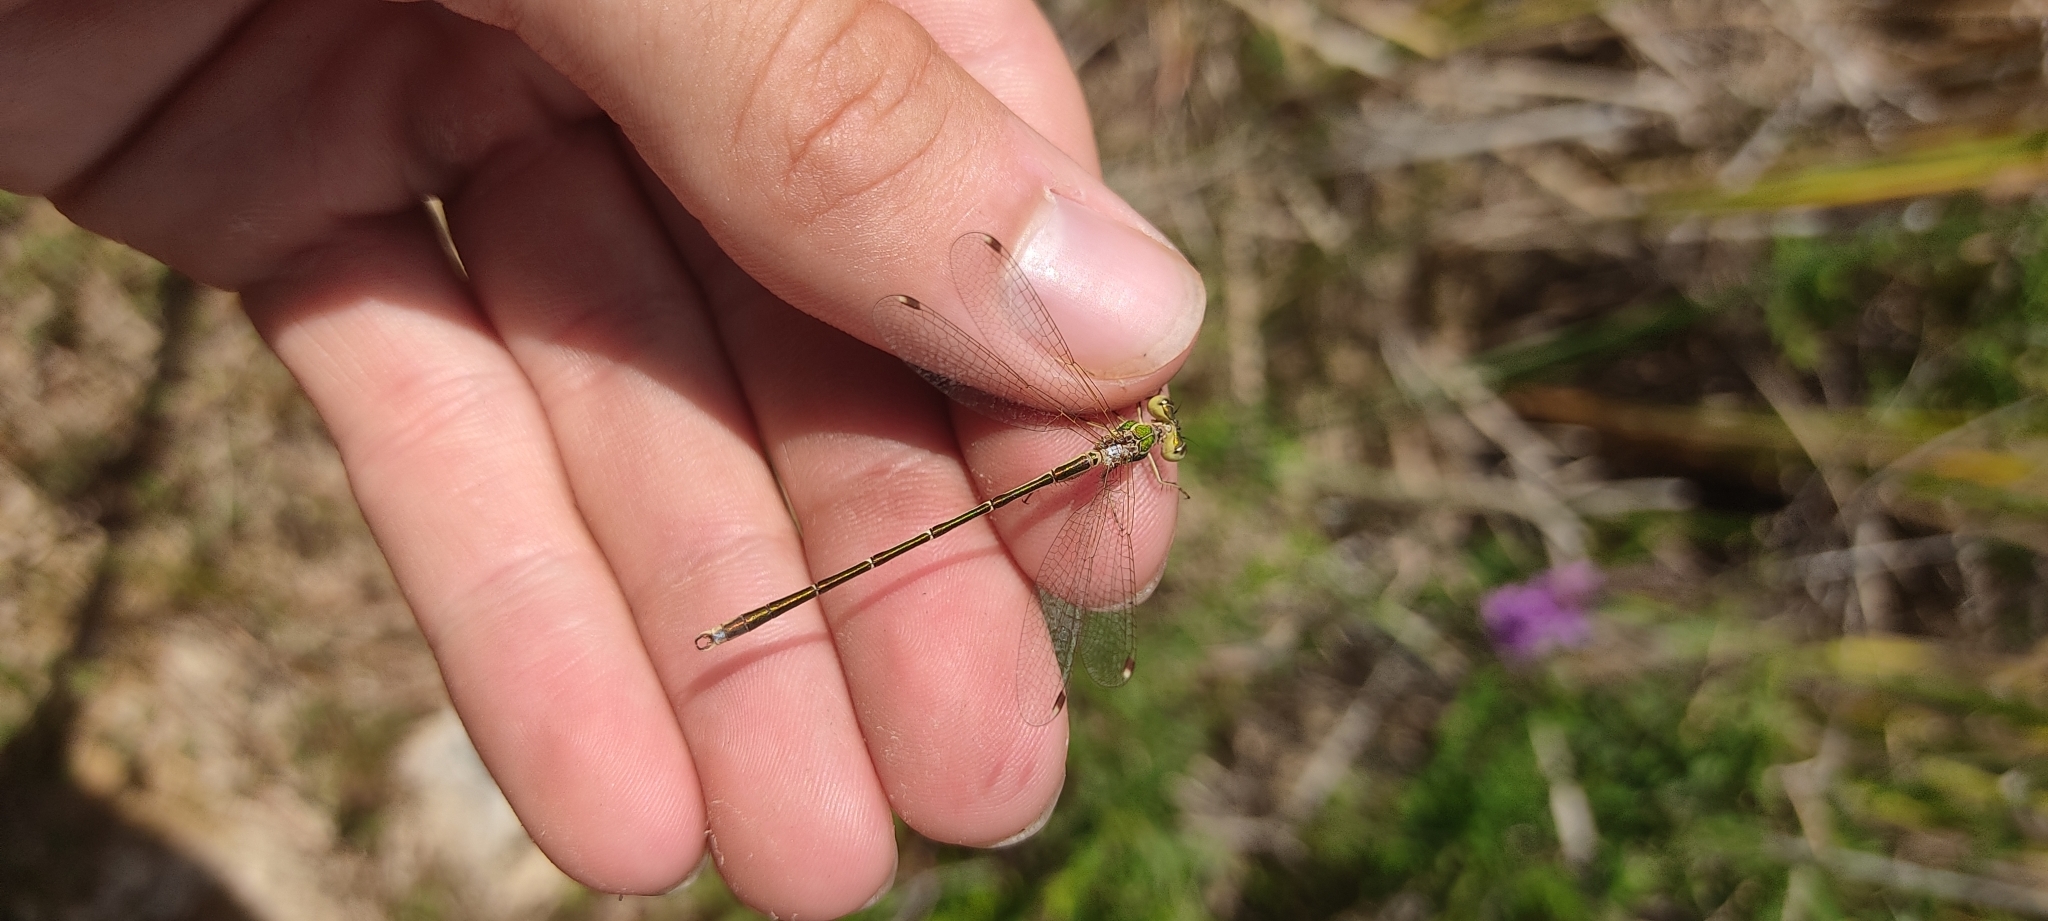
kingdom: Animalia
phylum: Arthropoda
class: Insecta
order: Odonata
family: Lestidae
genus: Lestes
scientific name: Lestes barbarus
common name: Migrant spreadwing
